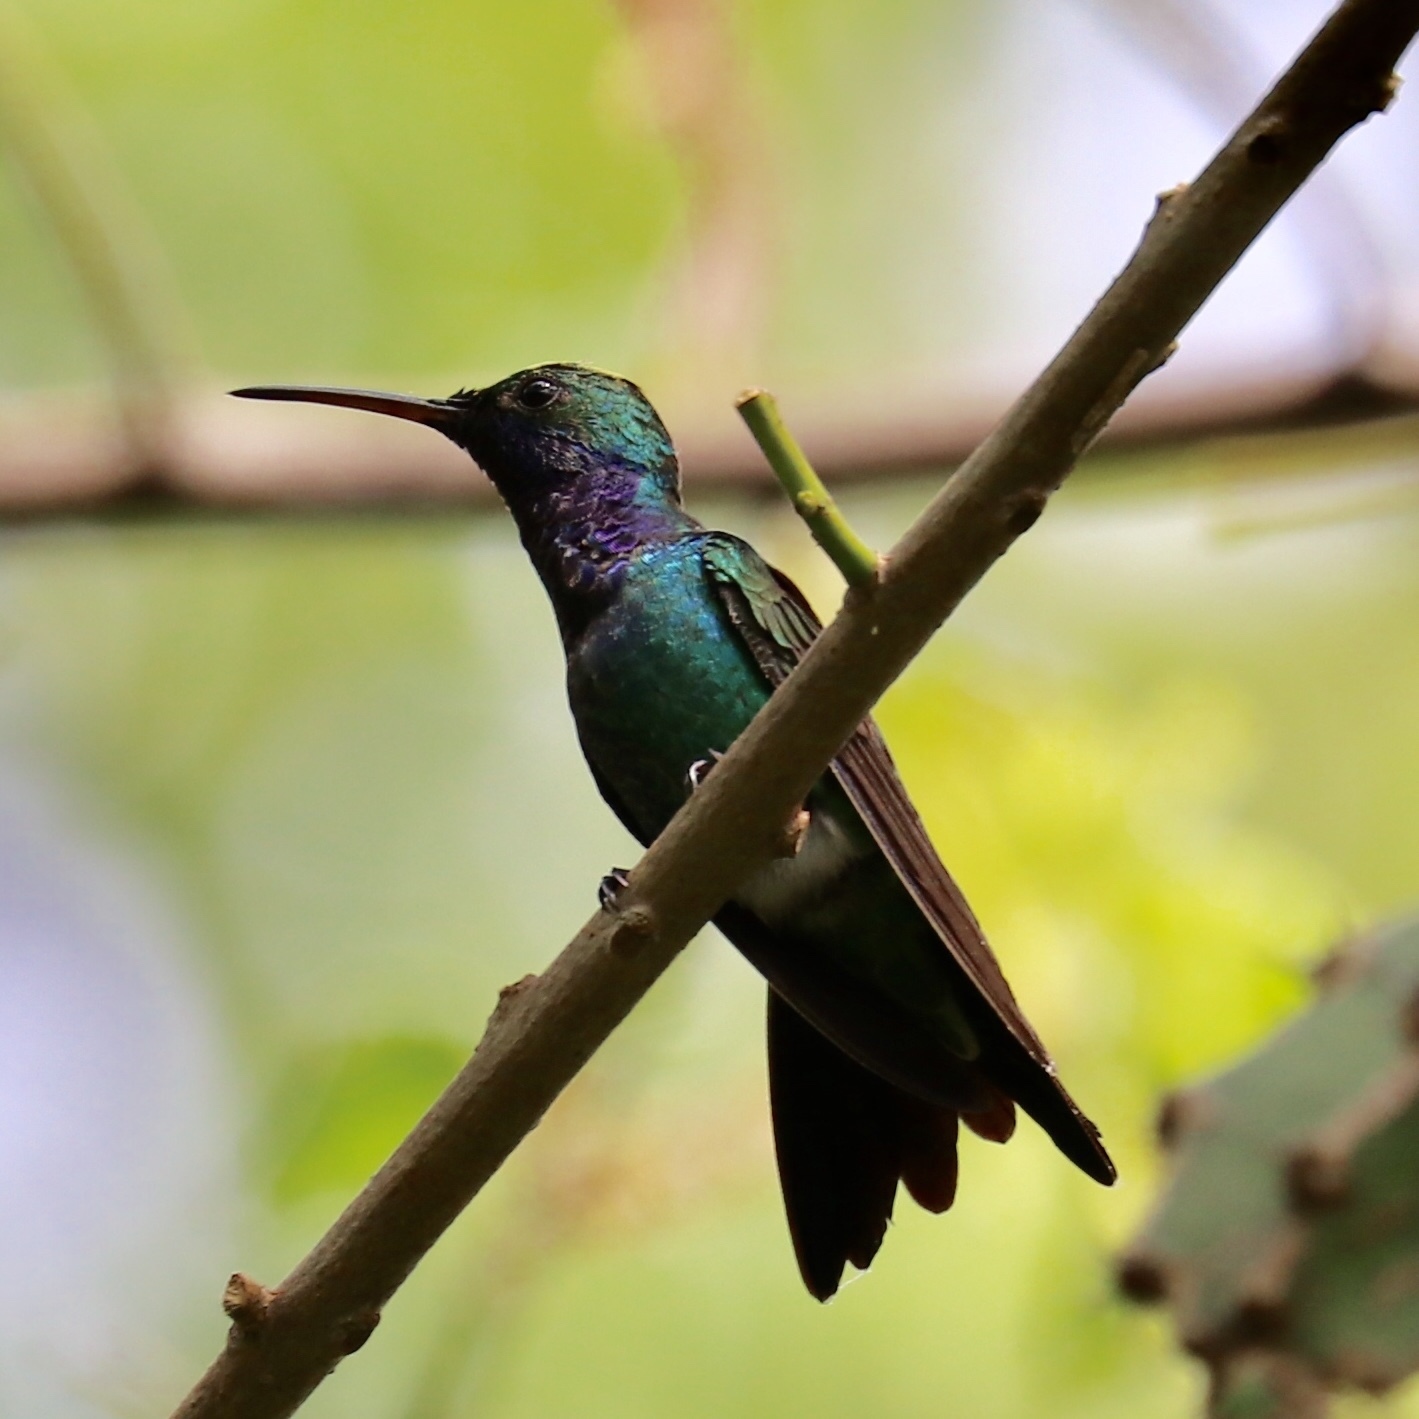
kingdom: Animalia
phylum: Chordata
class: Aves
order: Apodiformes
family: Trochilidae
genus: Chrysuronia
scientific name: Chrysuronia coeruleogularis
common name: Sapphire-throated hummingbird
